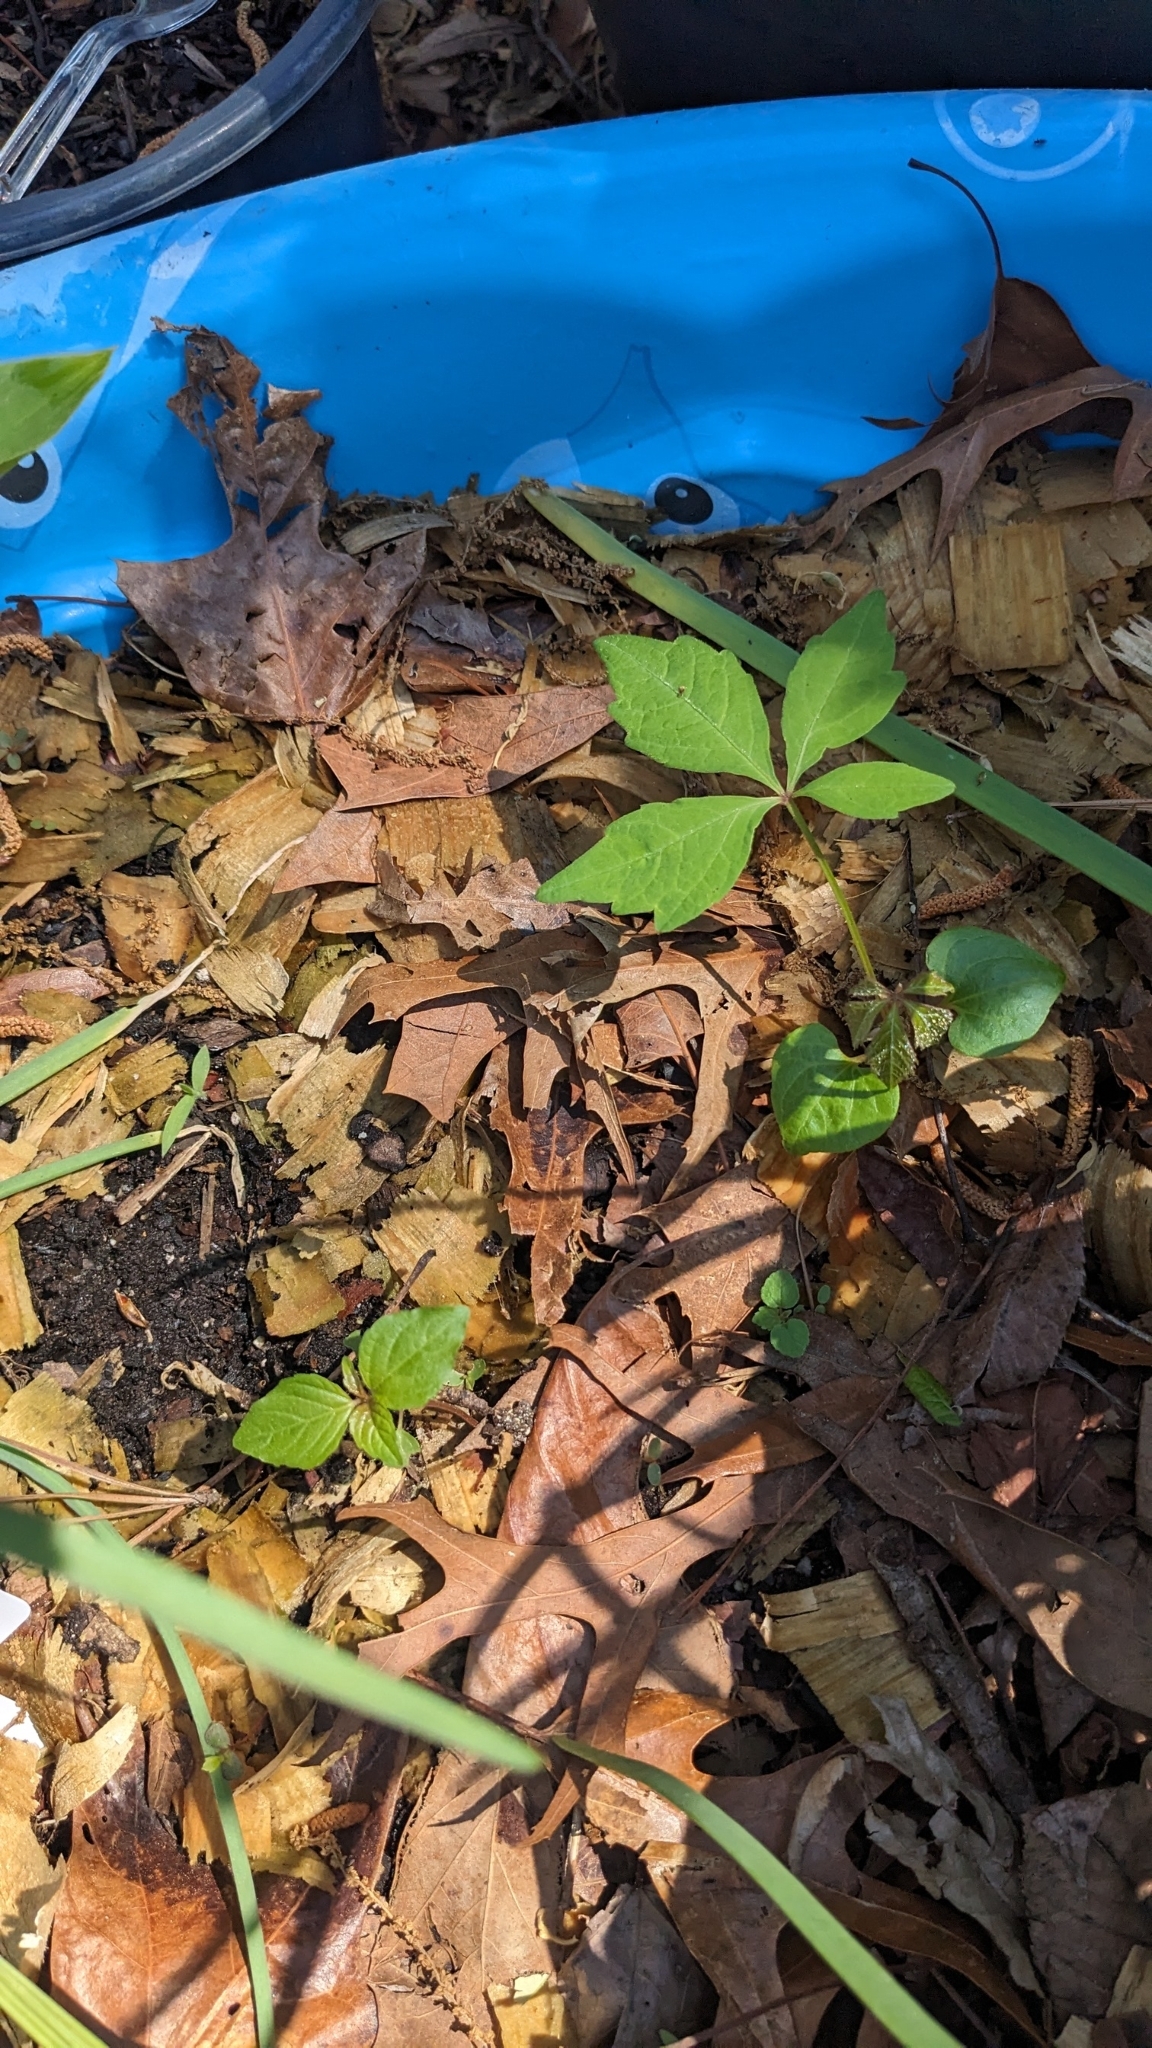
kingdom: Plantae
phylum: Tracheophyta
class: Magnoliopsida
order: Vitales
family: Vitaceae
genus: Parthenocissus
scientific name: Parthenocissus quinquefolia
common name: Virginia-creeper
